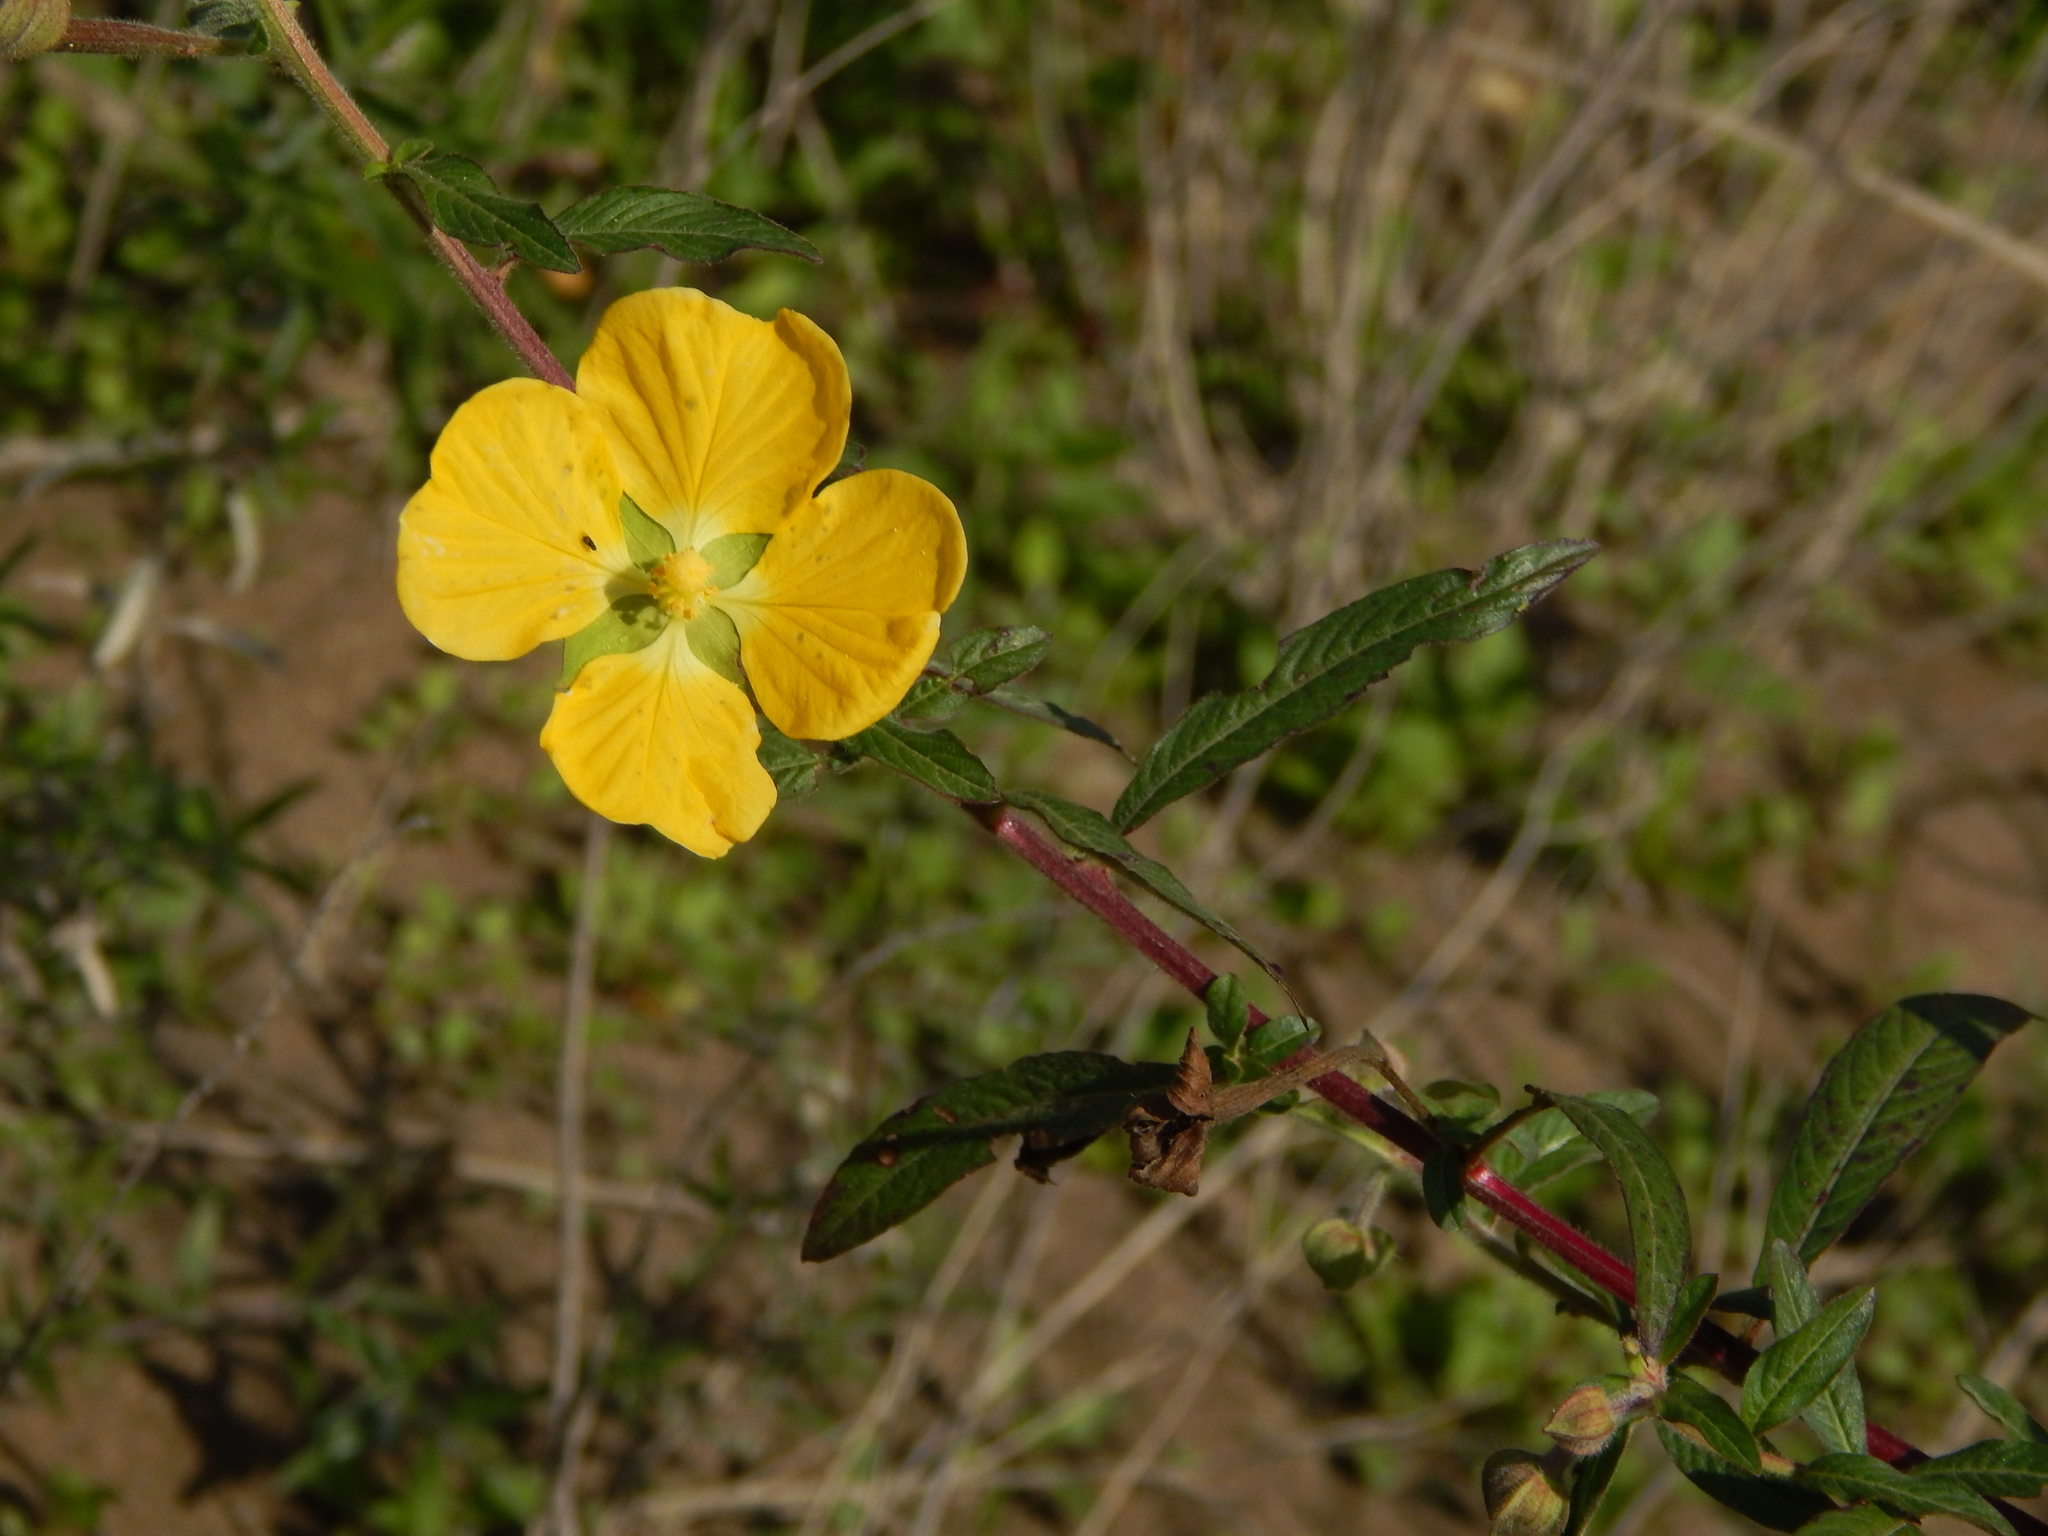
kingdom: Plantae
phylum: Tracheophyta
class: Magnoliopsida
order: Myrtales
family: Onagraceae
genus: Ludwigia
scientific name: Ludwigia octovalvis
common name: Water-primrose
